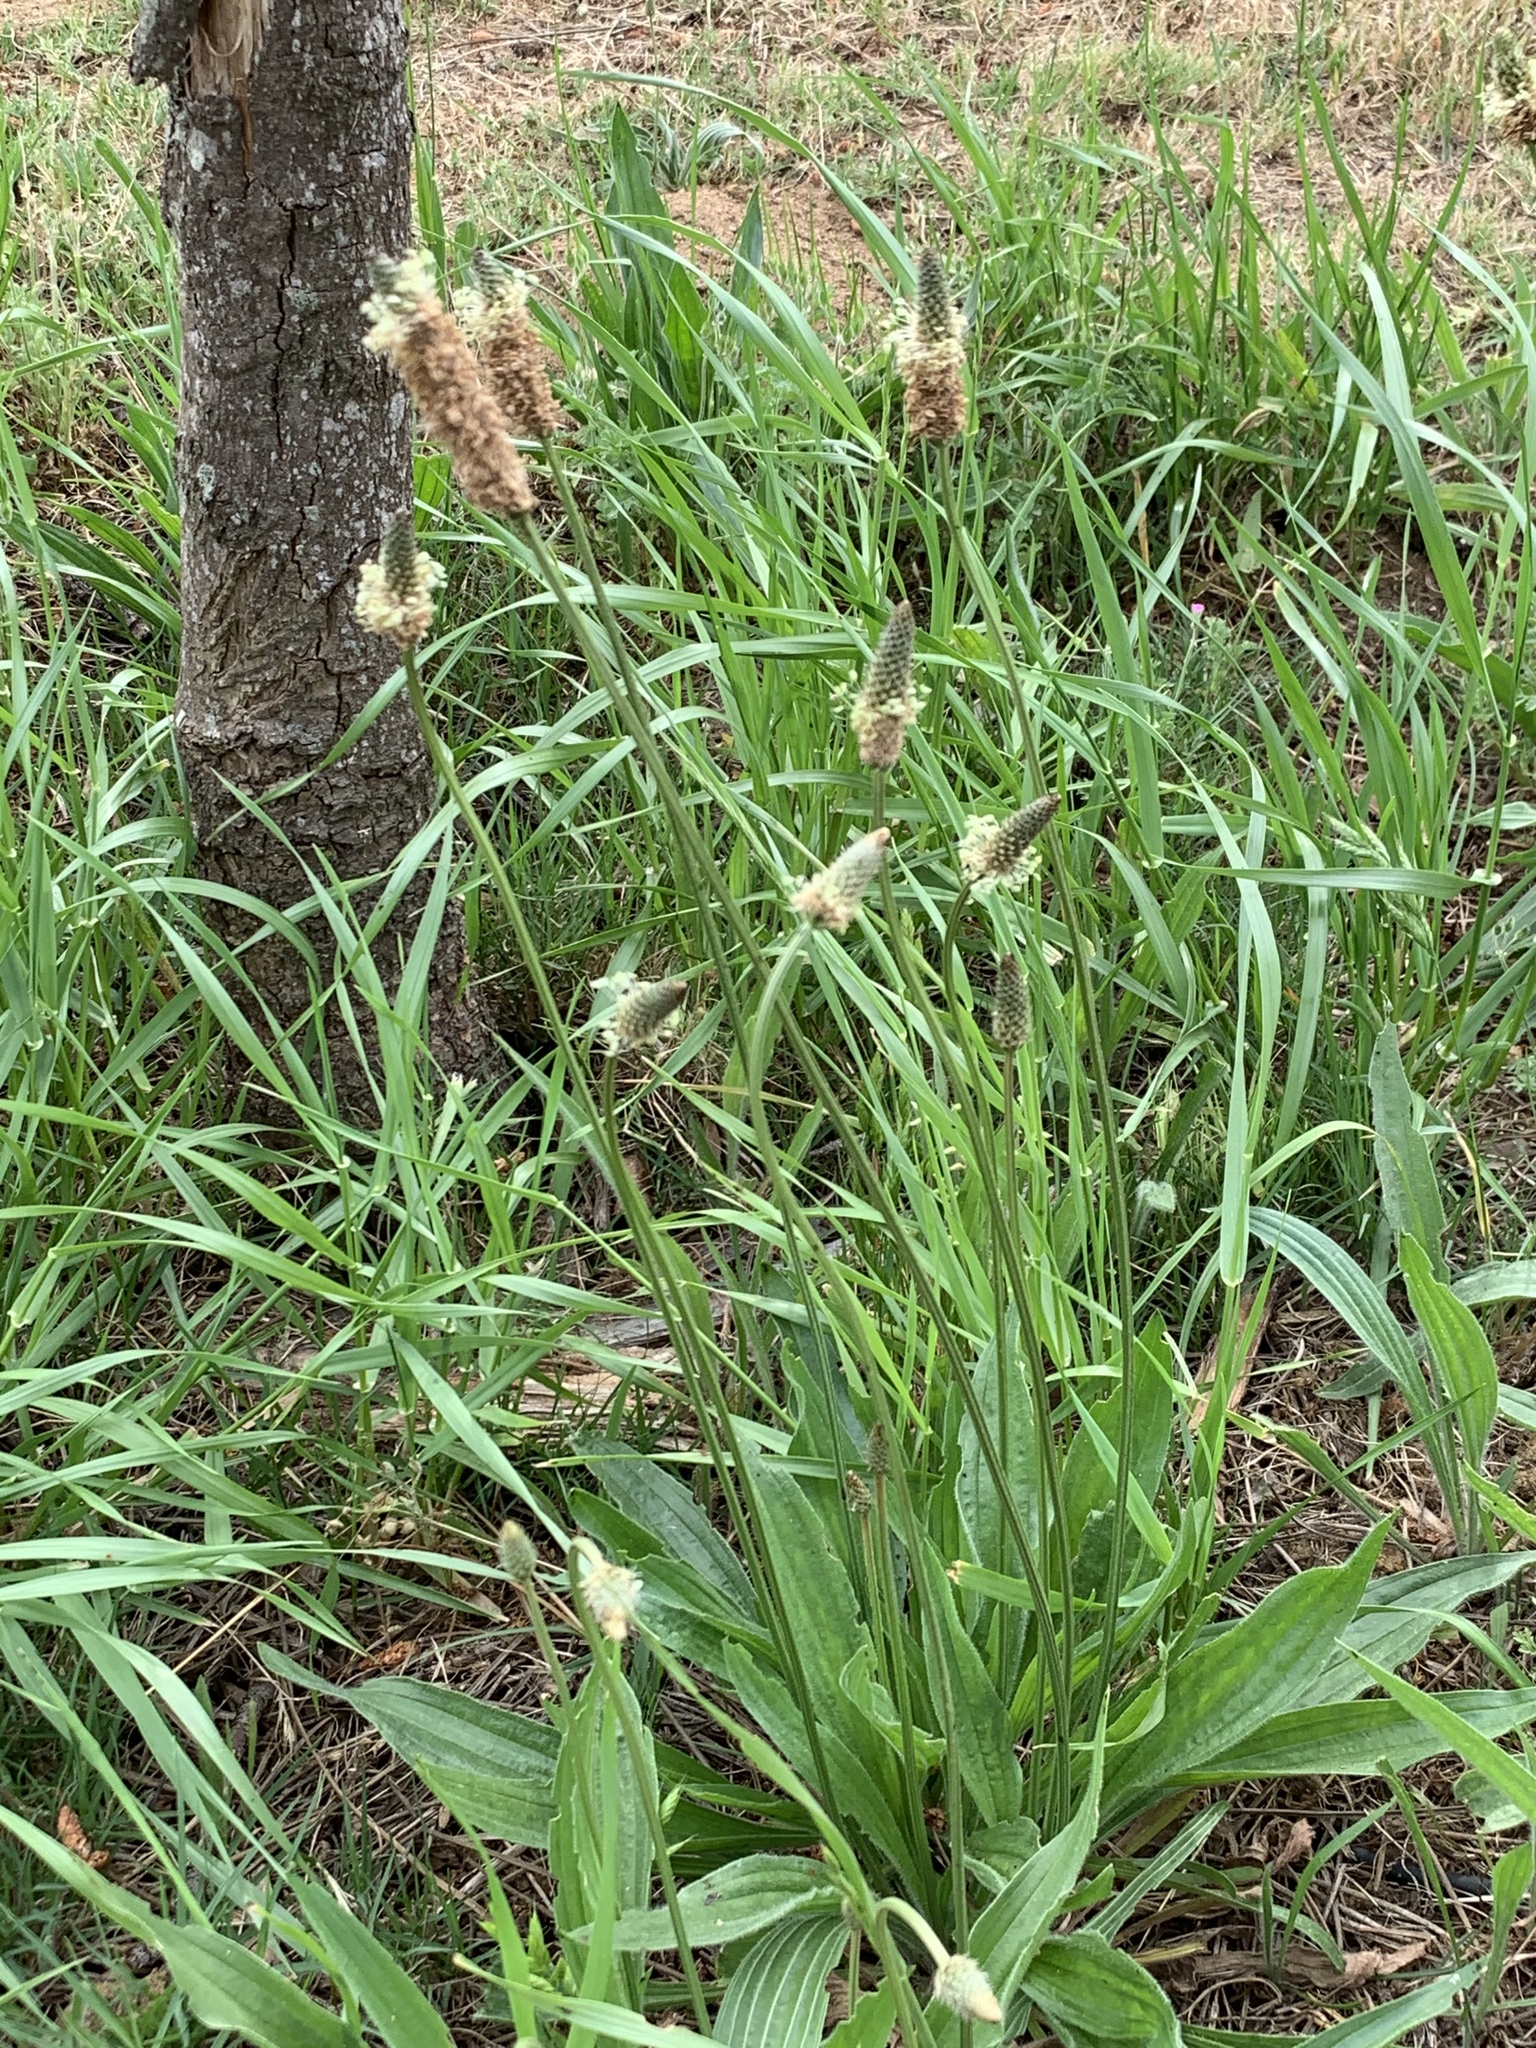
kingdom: Plantae
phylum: Tracheophyta
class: Magnoliopsida
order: Lamiales
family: Plantaginaceae
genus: Plantago
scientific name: Plantago lanceolata
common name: Ribwort plantain
